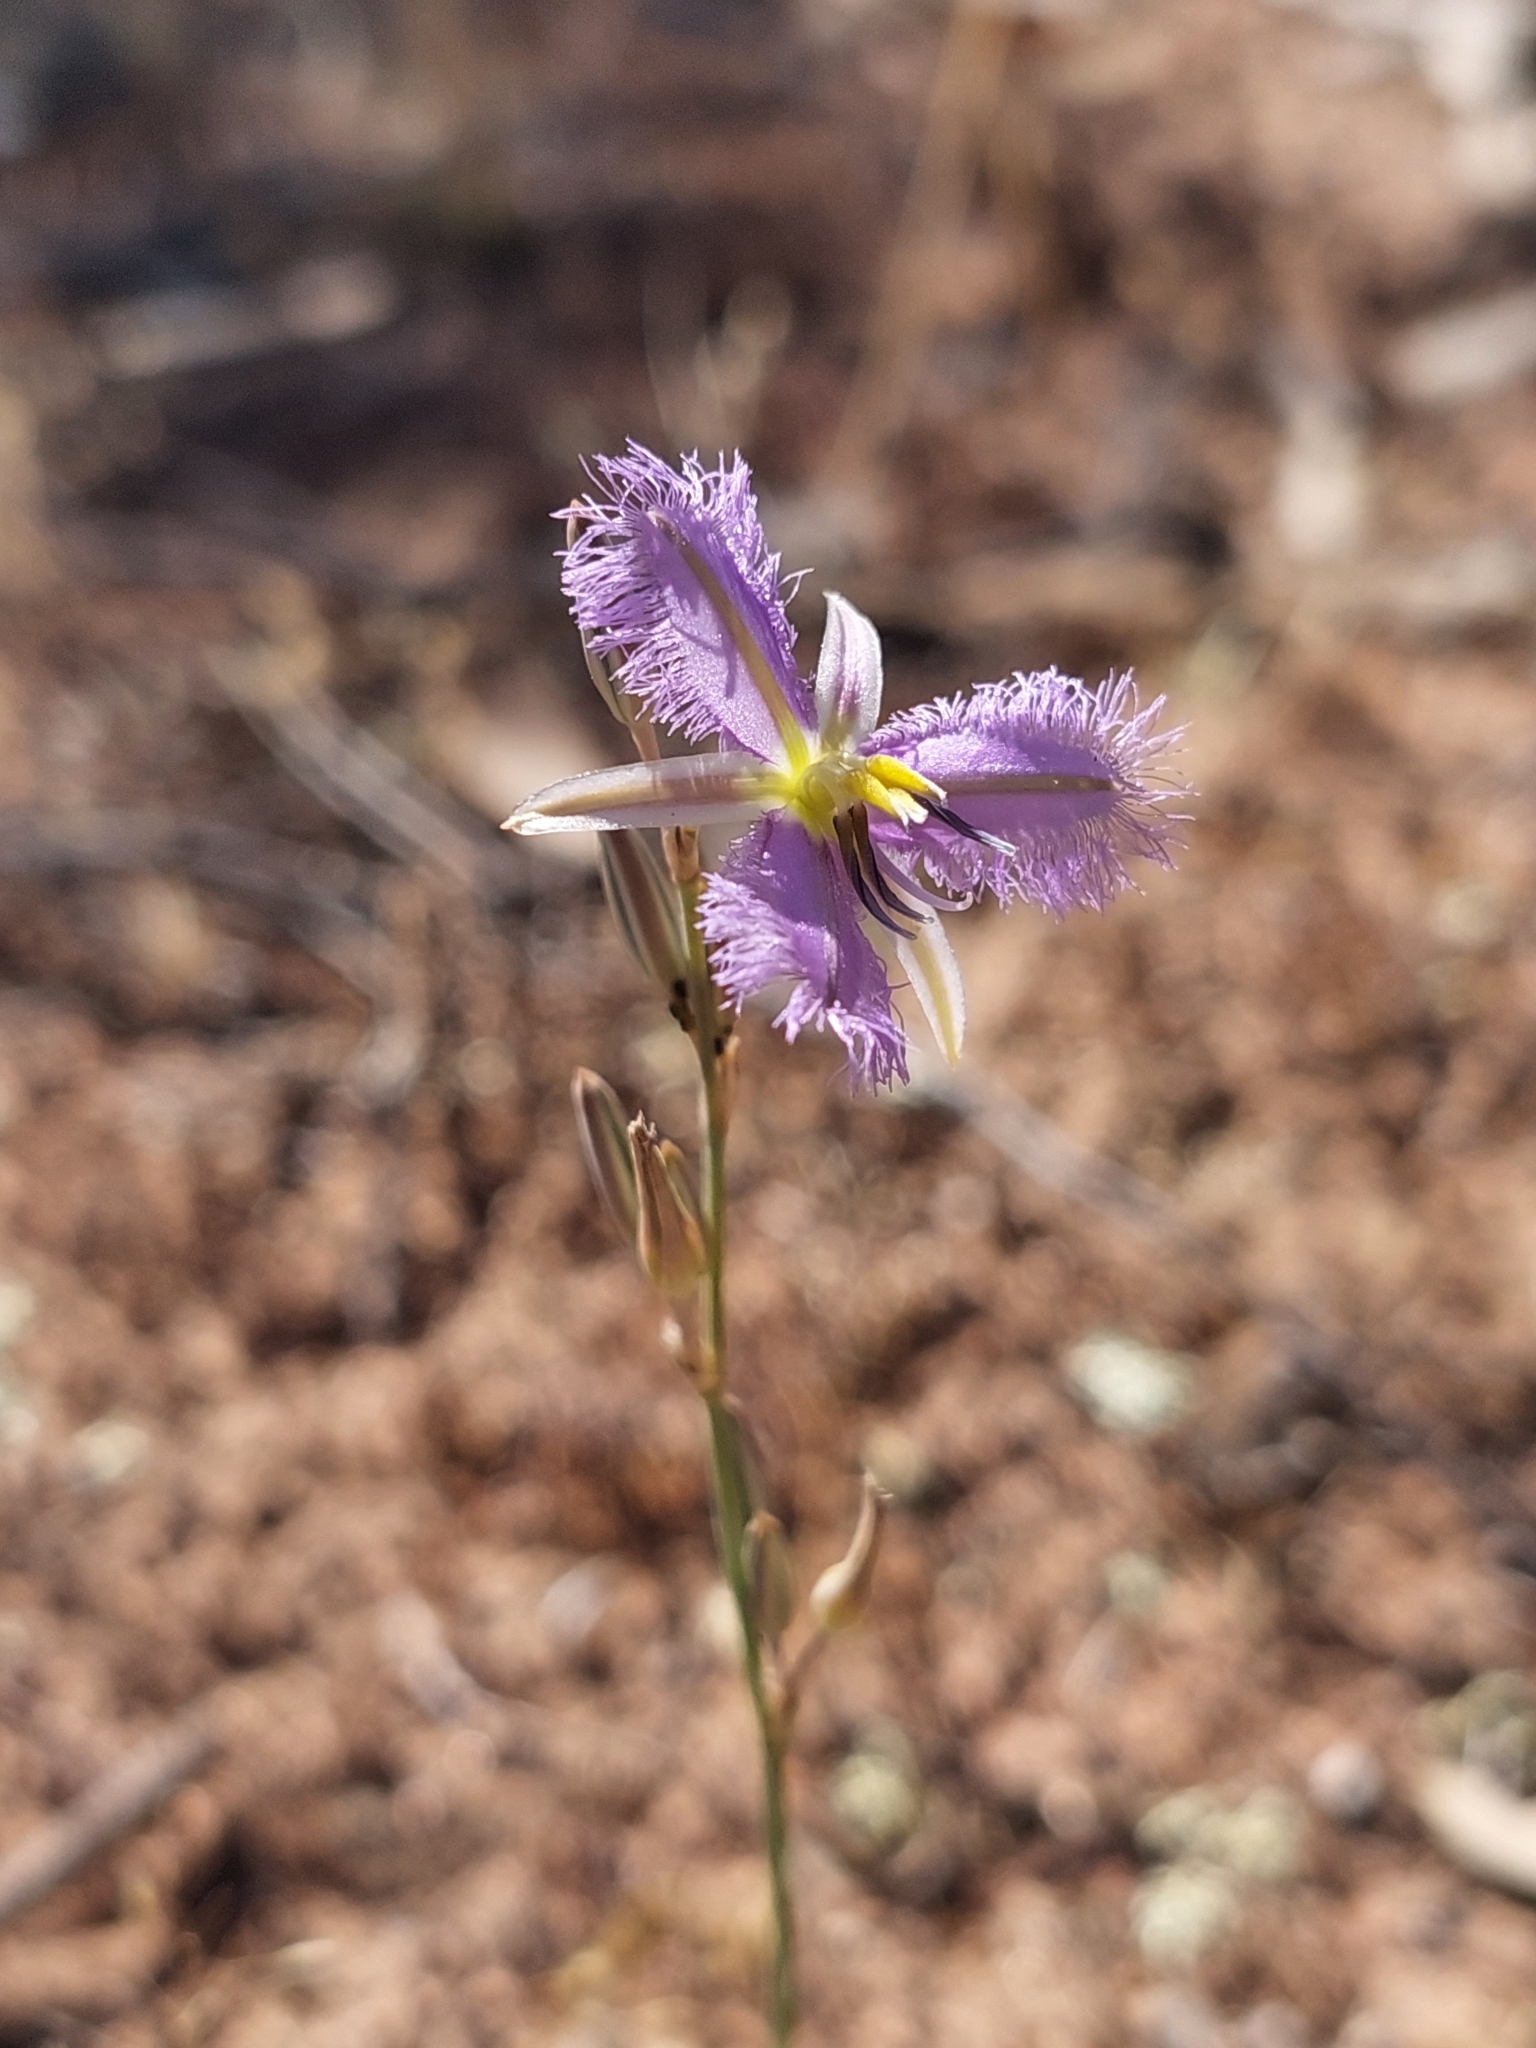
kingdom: Plantae
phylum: Tracheophyta
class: Liliopsida
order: Asparagales
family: Asparagaceae
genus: Thysanotus
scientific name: Thysanotus baueri
